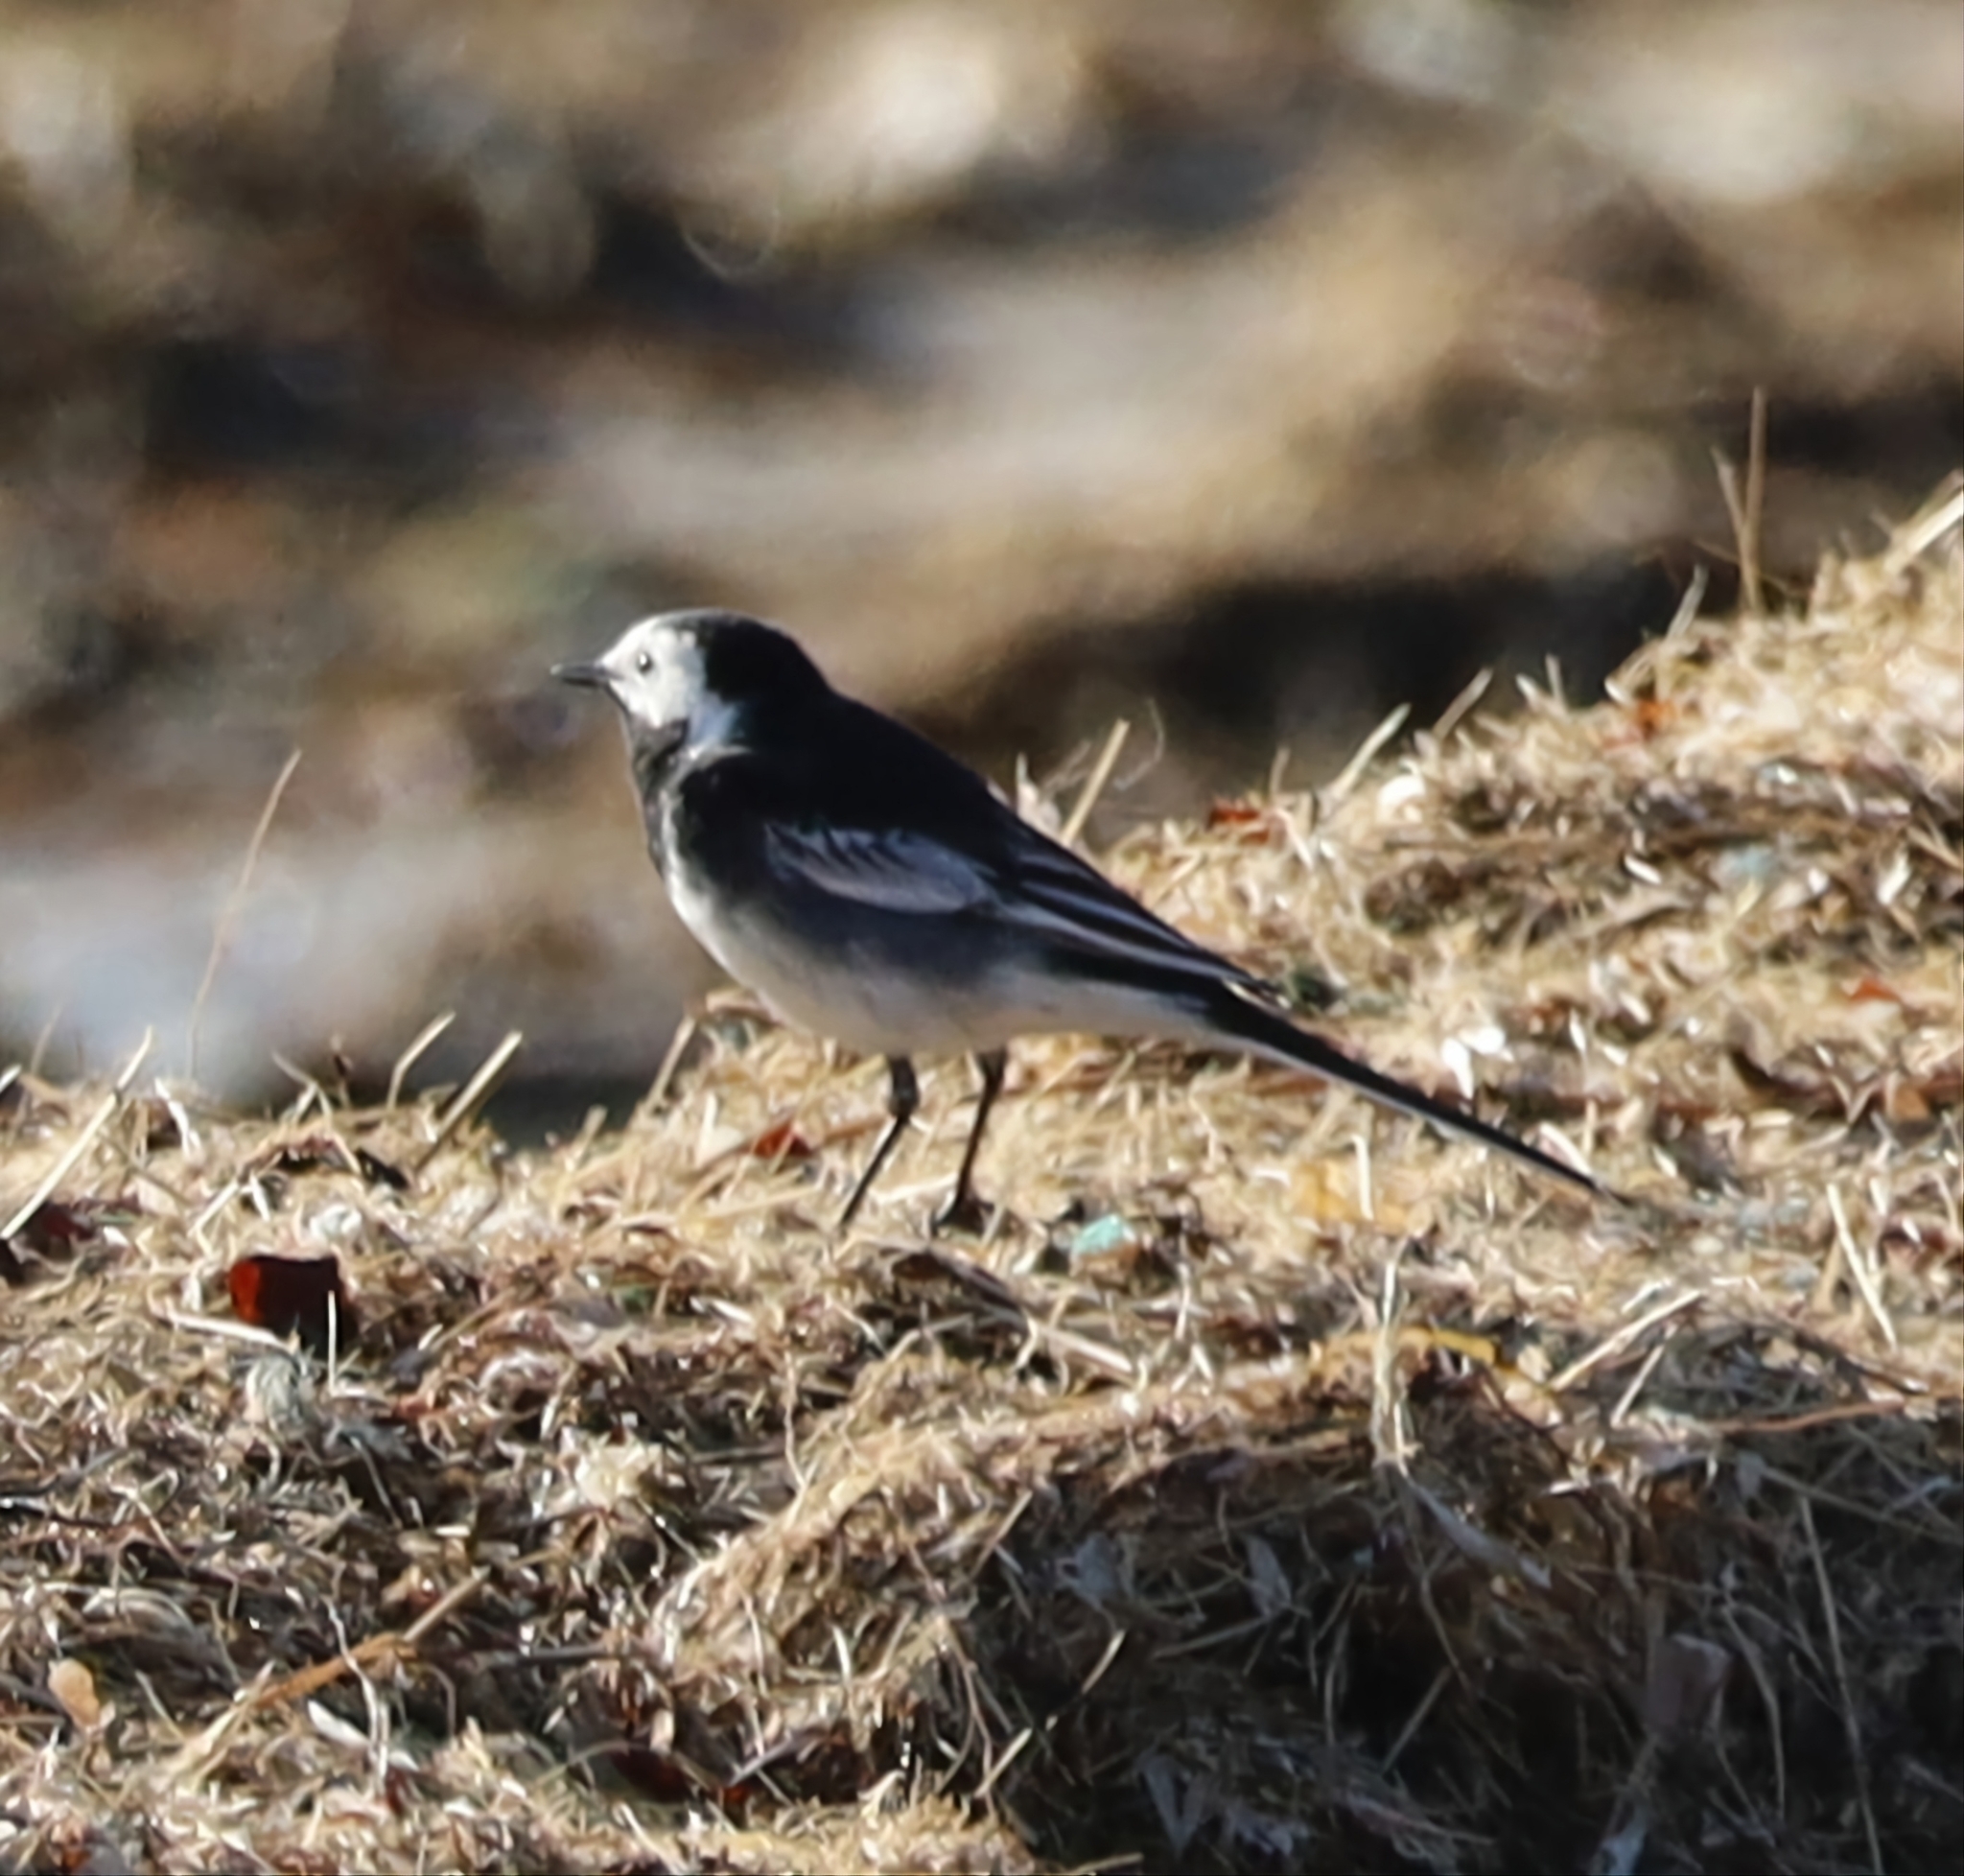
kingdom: Animalia
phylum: Chordata
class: Aves
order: Passeriformes
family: Motacillidae
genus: Motacilla
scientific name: Motacilla alba
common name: White wagtail
